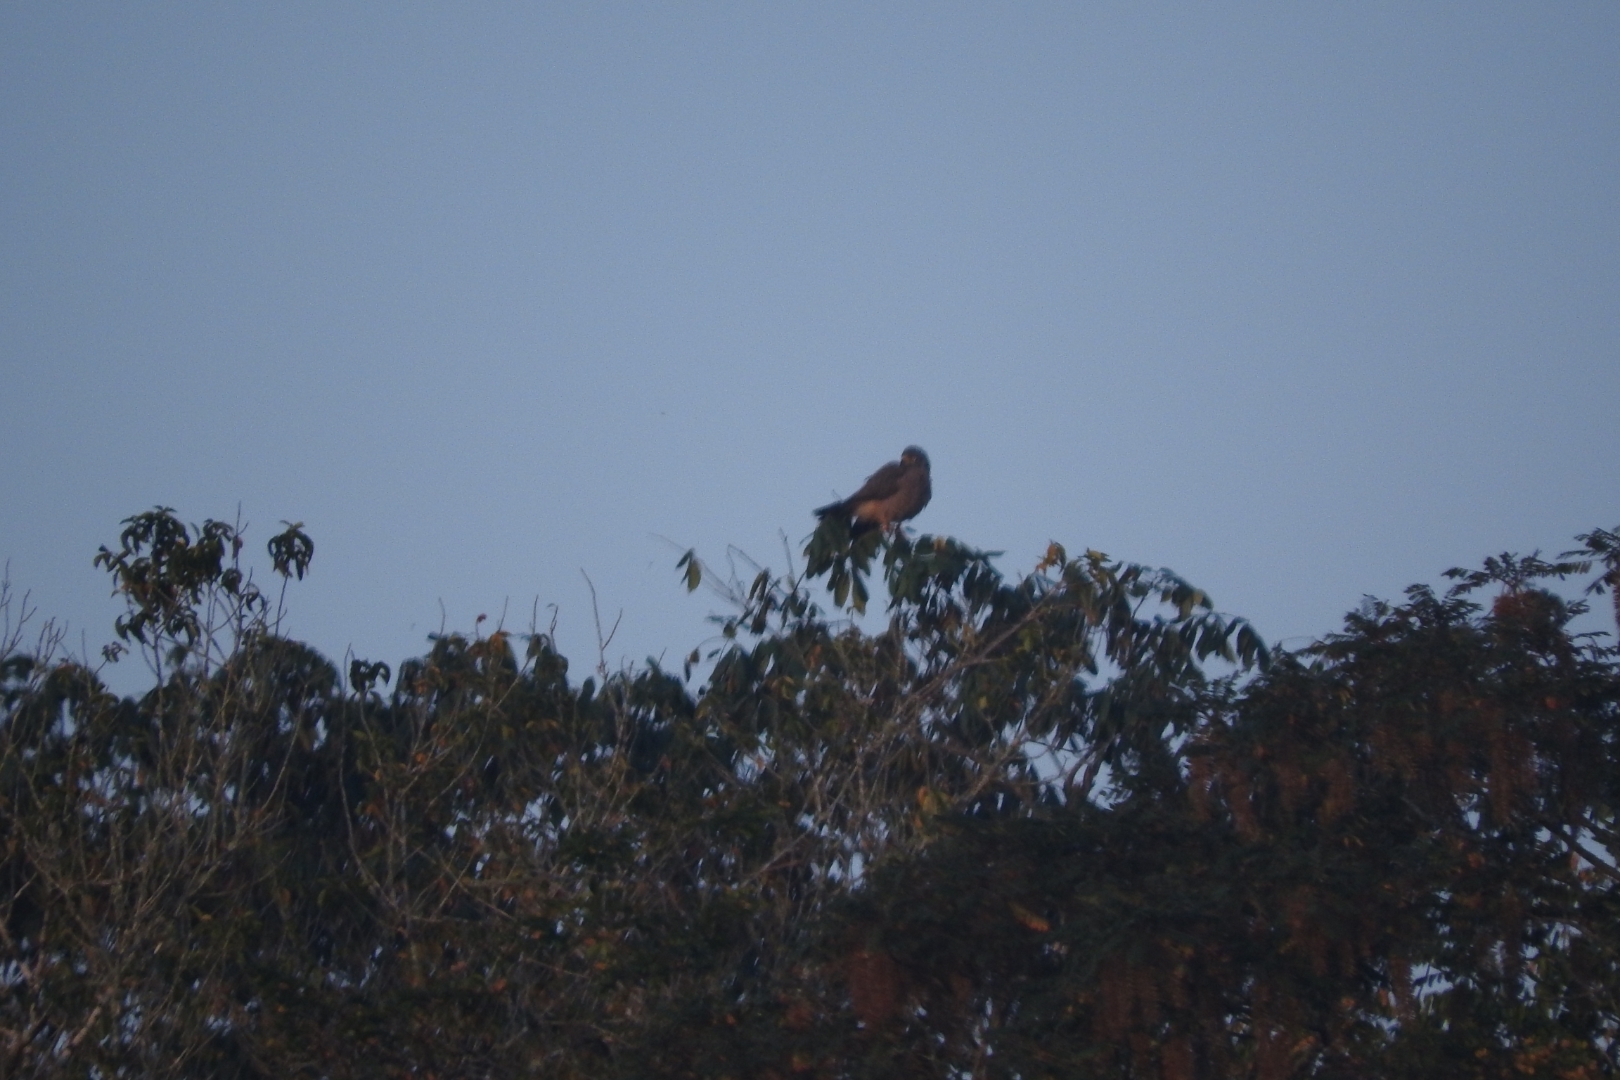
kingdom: Animalia
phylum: Chordata
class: Aves
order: Accipitriformes
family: Accipitridae
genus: Rupornis
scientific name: Rupornis magnirostris
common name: Roadside hawk
